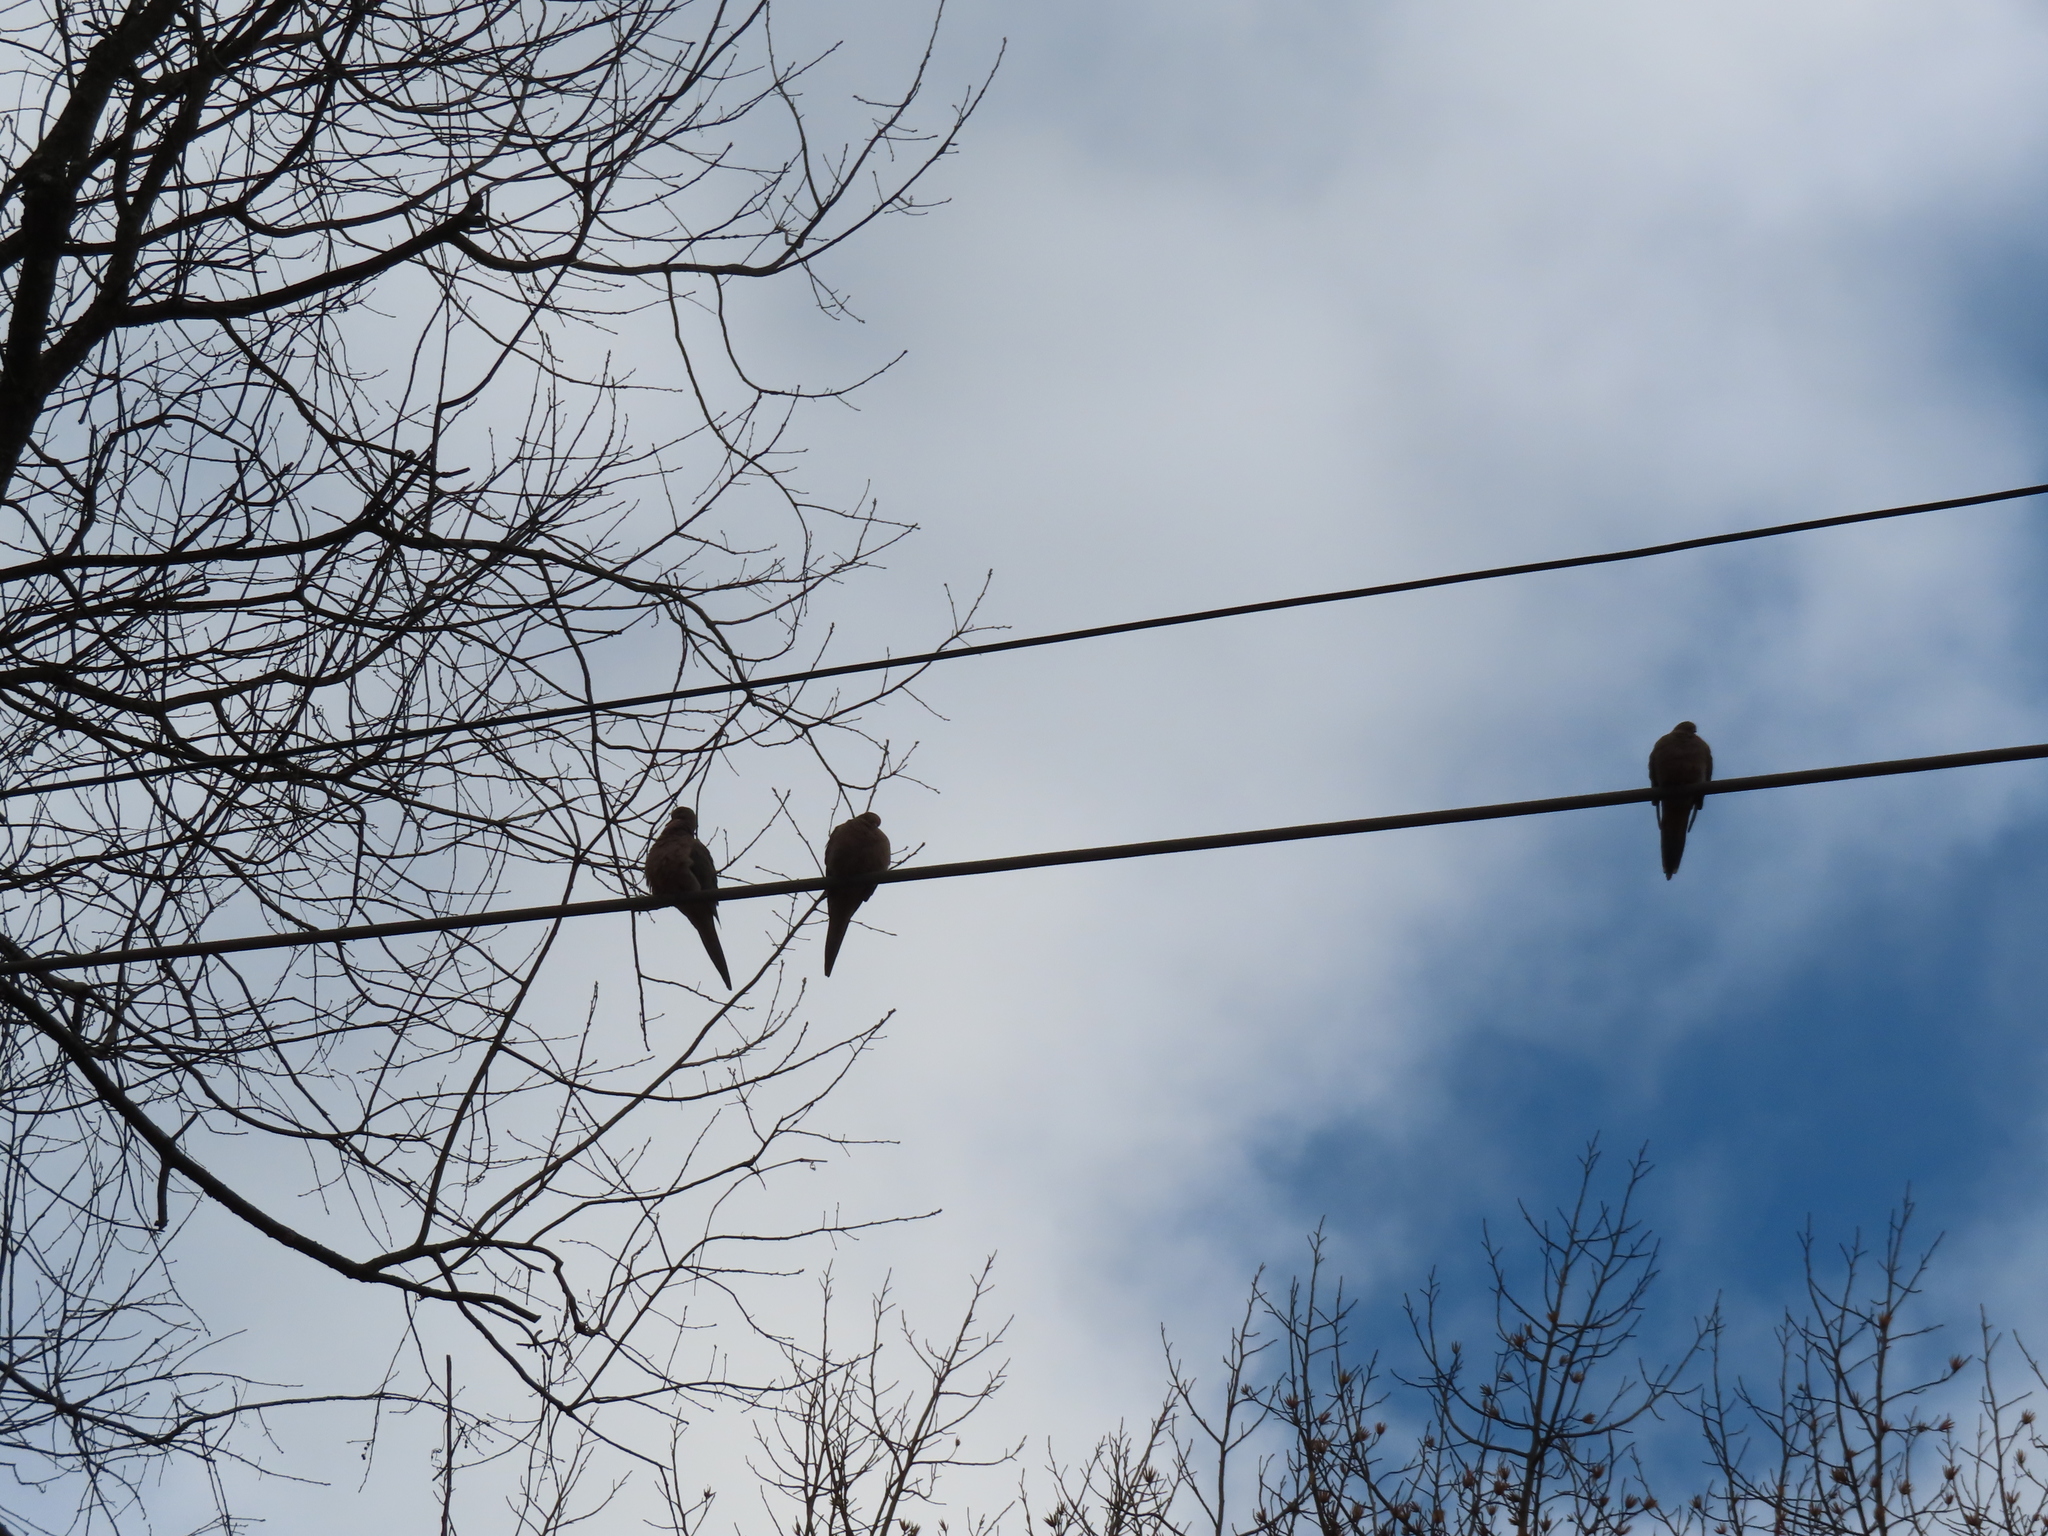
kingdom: Animalia
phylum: Chordata
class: Aves
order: Columbiformes
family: Columbidae
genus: Zenaida
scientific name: Zenaida macroura
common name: Mourning dove
